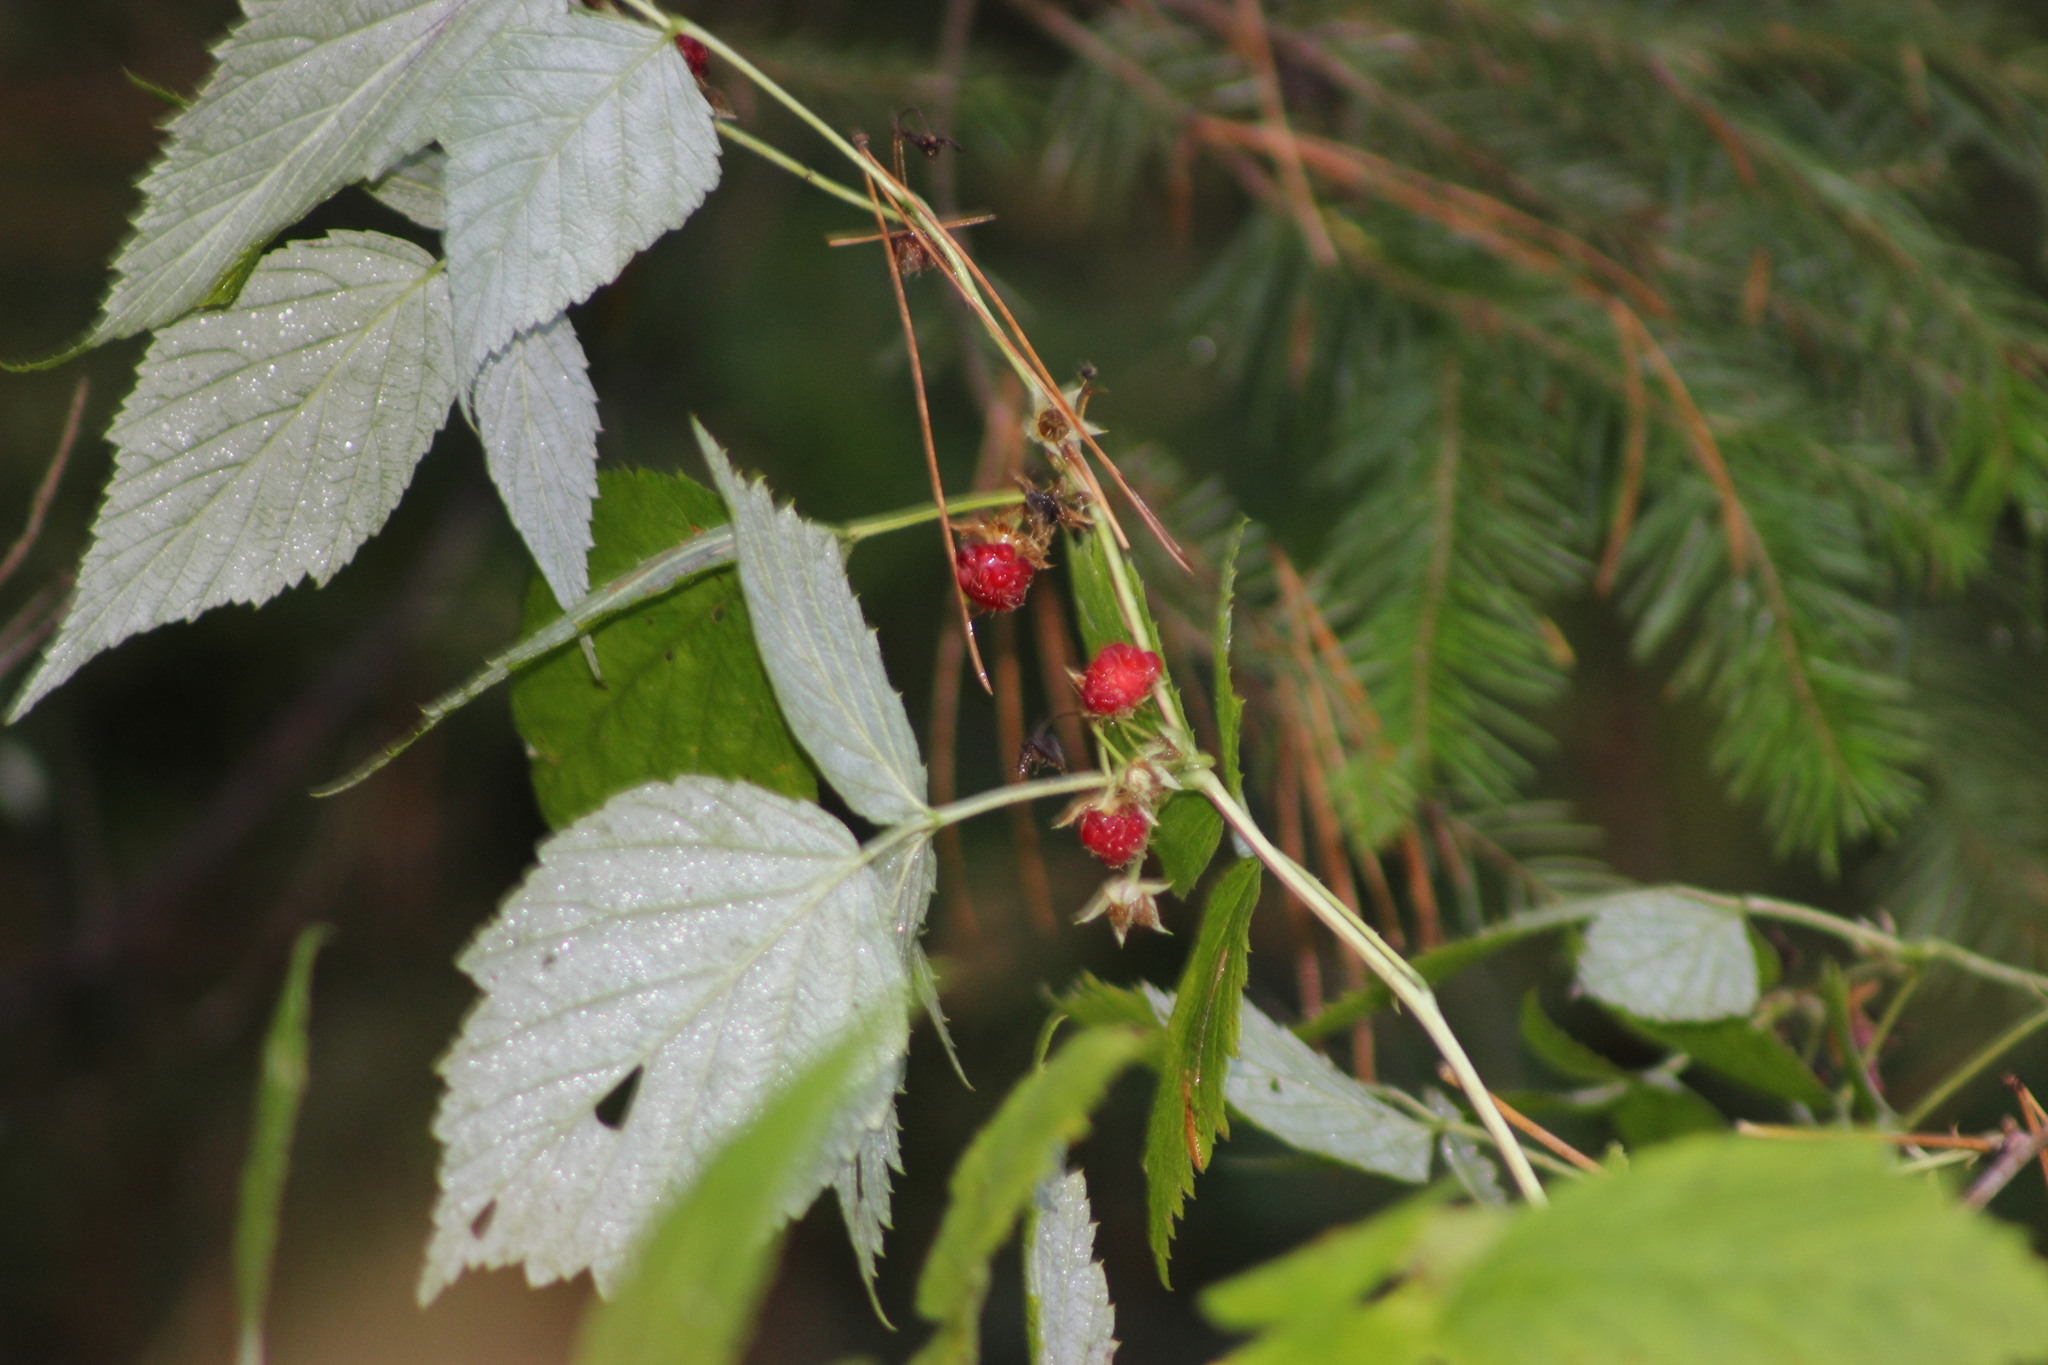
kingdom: Plantae
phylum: Tracheophyta
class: Magnoliopsida
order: Rosales
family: Rosaceae
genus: Rubus
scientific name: Rubus idaeus
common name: Raspberry
